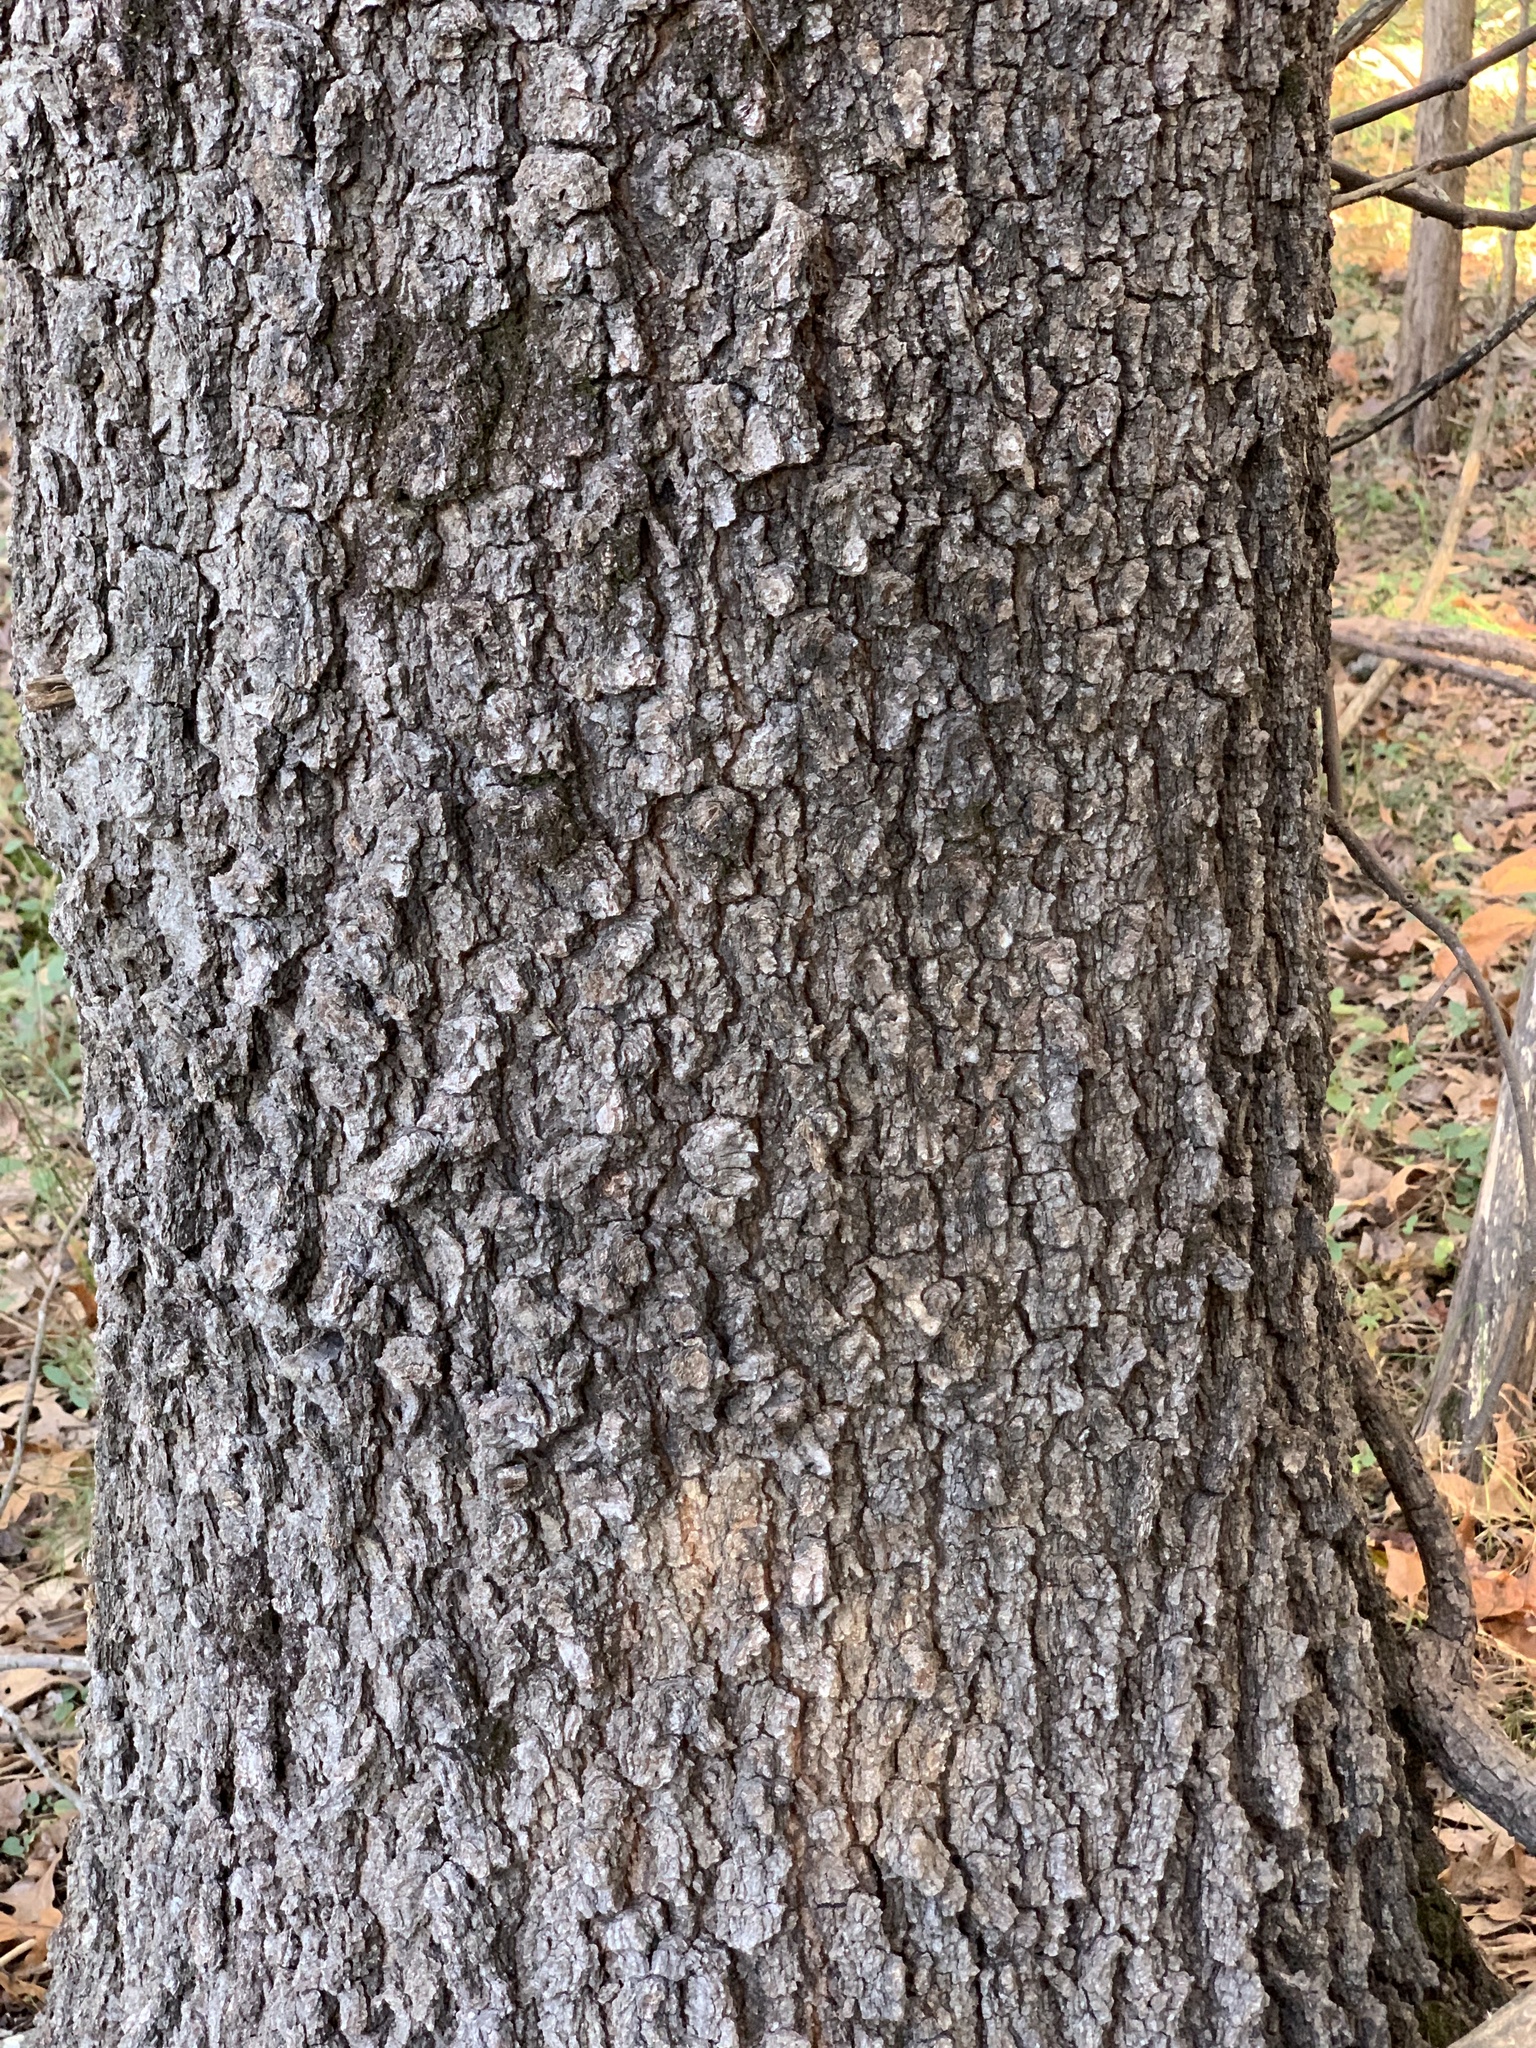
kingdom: Plantae
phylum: Tracheophyta
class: Magnoliopsida
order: Fagales
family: Fagaceae
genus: Quercus
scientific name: Quercus willdenowiana
